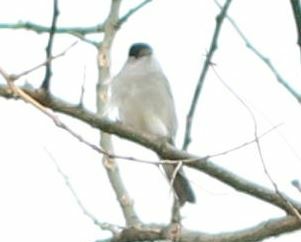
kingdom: Animalia
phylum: Chordata
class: Aves
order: Passeriformes
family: Sylviidae
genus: Sylvia
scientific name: Sylvia atricapilla
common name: Eurasian blackcap
